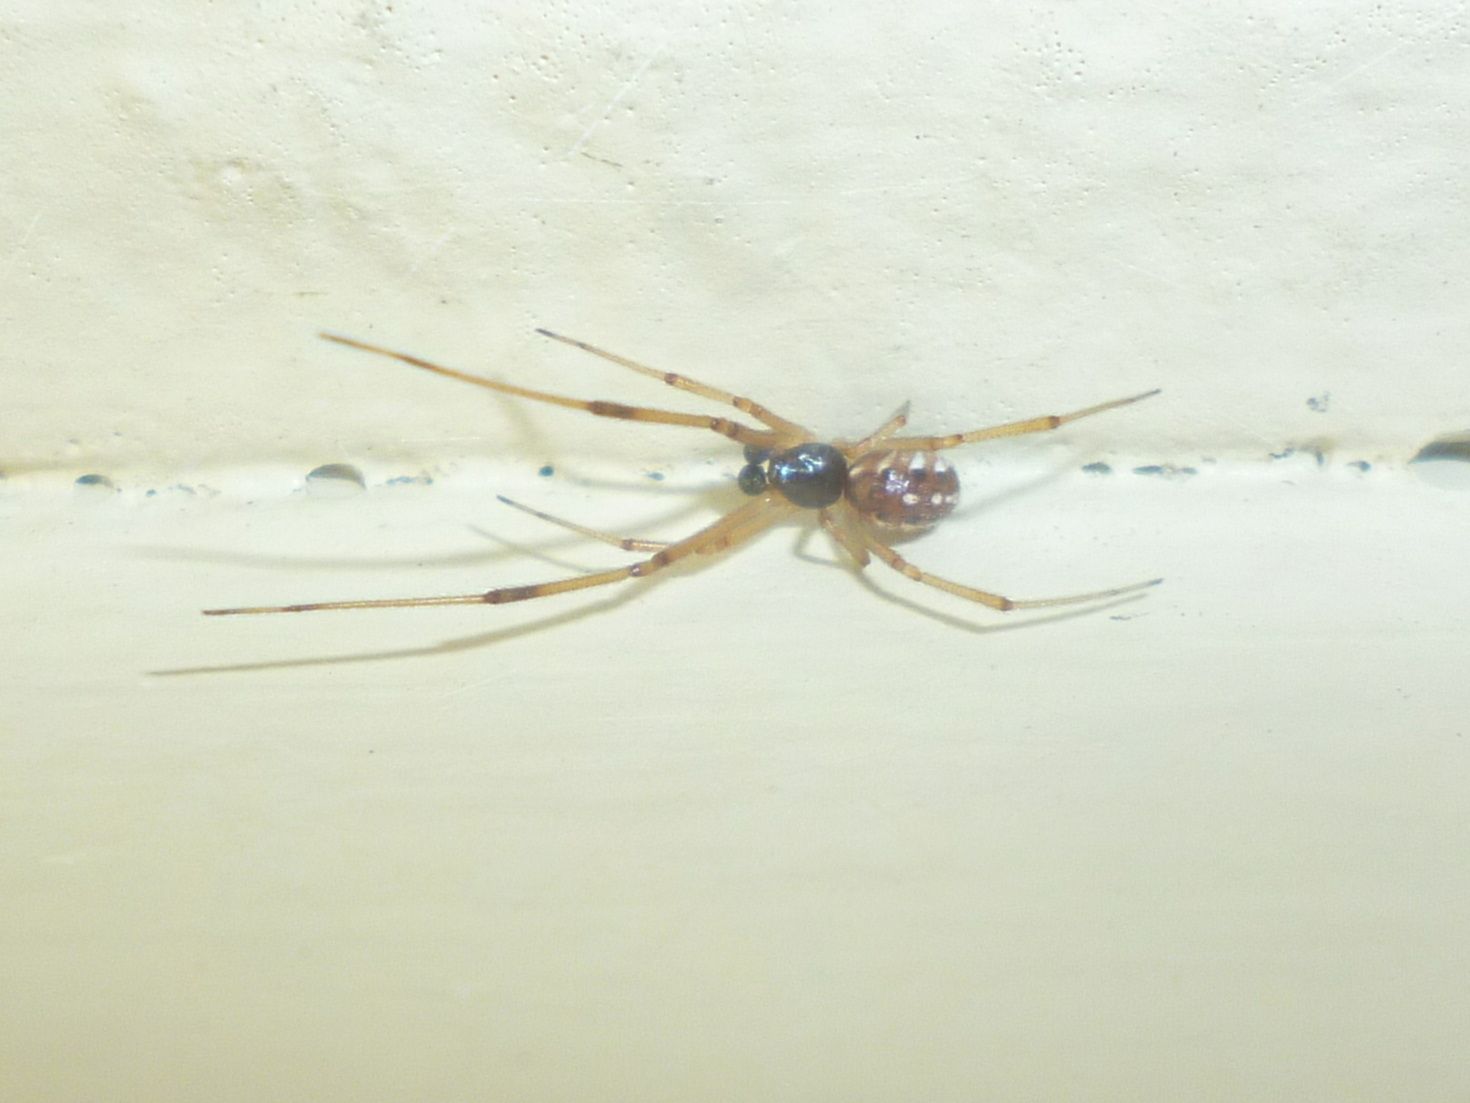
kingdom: Animalia
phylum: Arthropoda
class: Arachnida
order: Araneae
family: Theridiidae
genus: Latrodectus
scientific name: Latrodectus geometricus
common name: Brown widow spider
